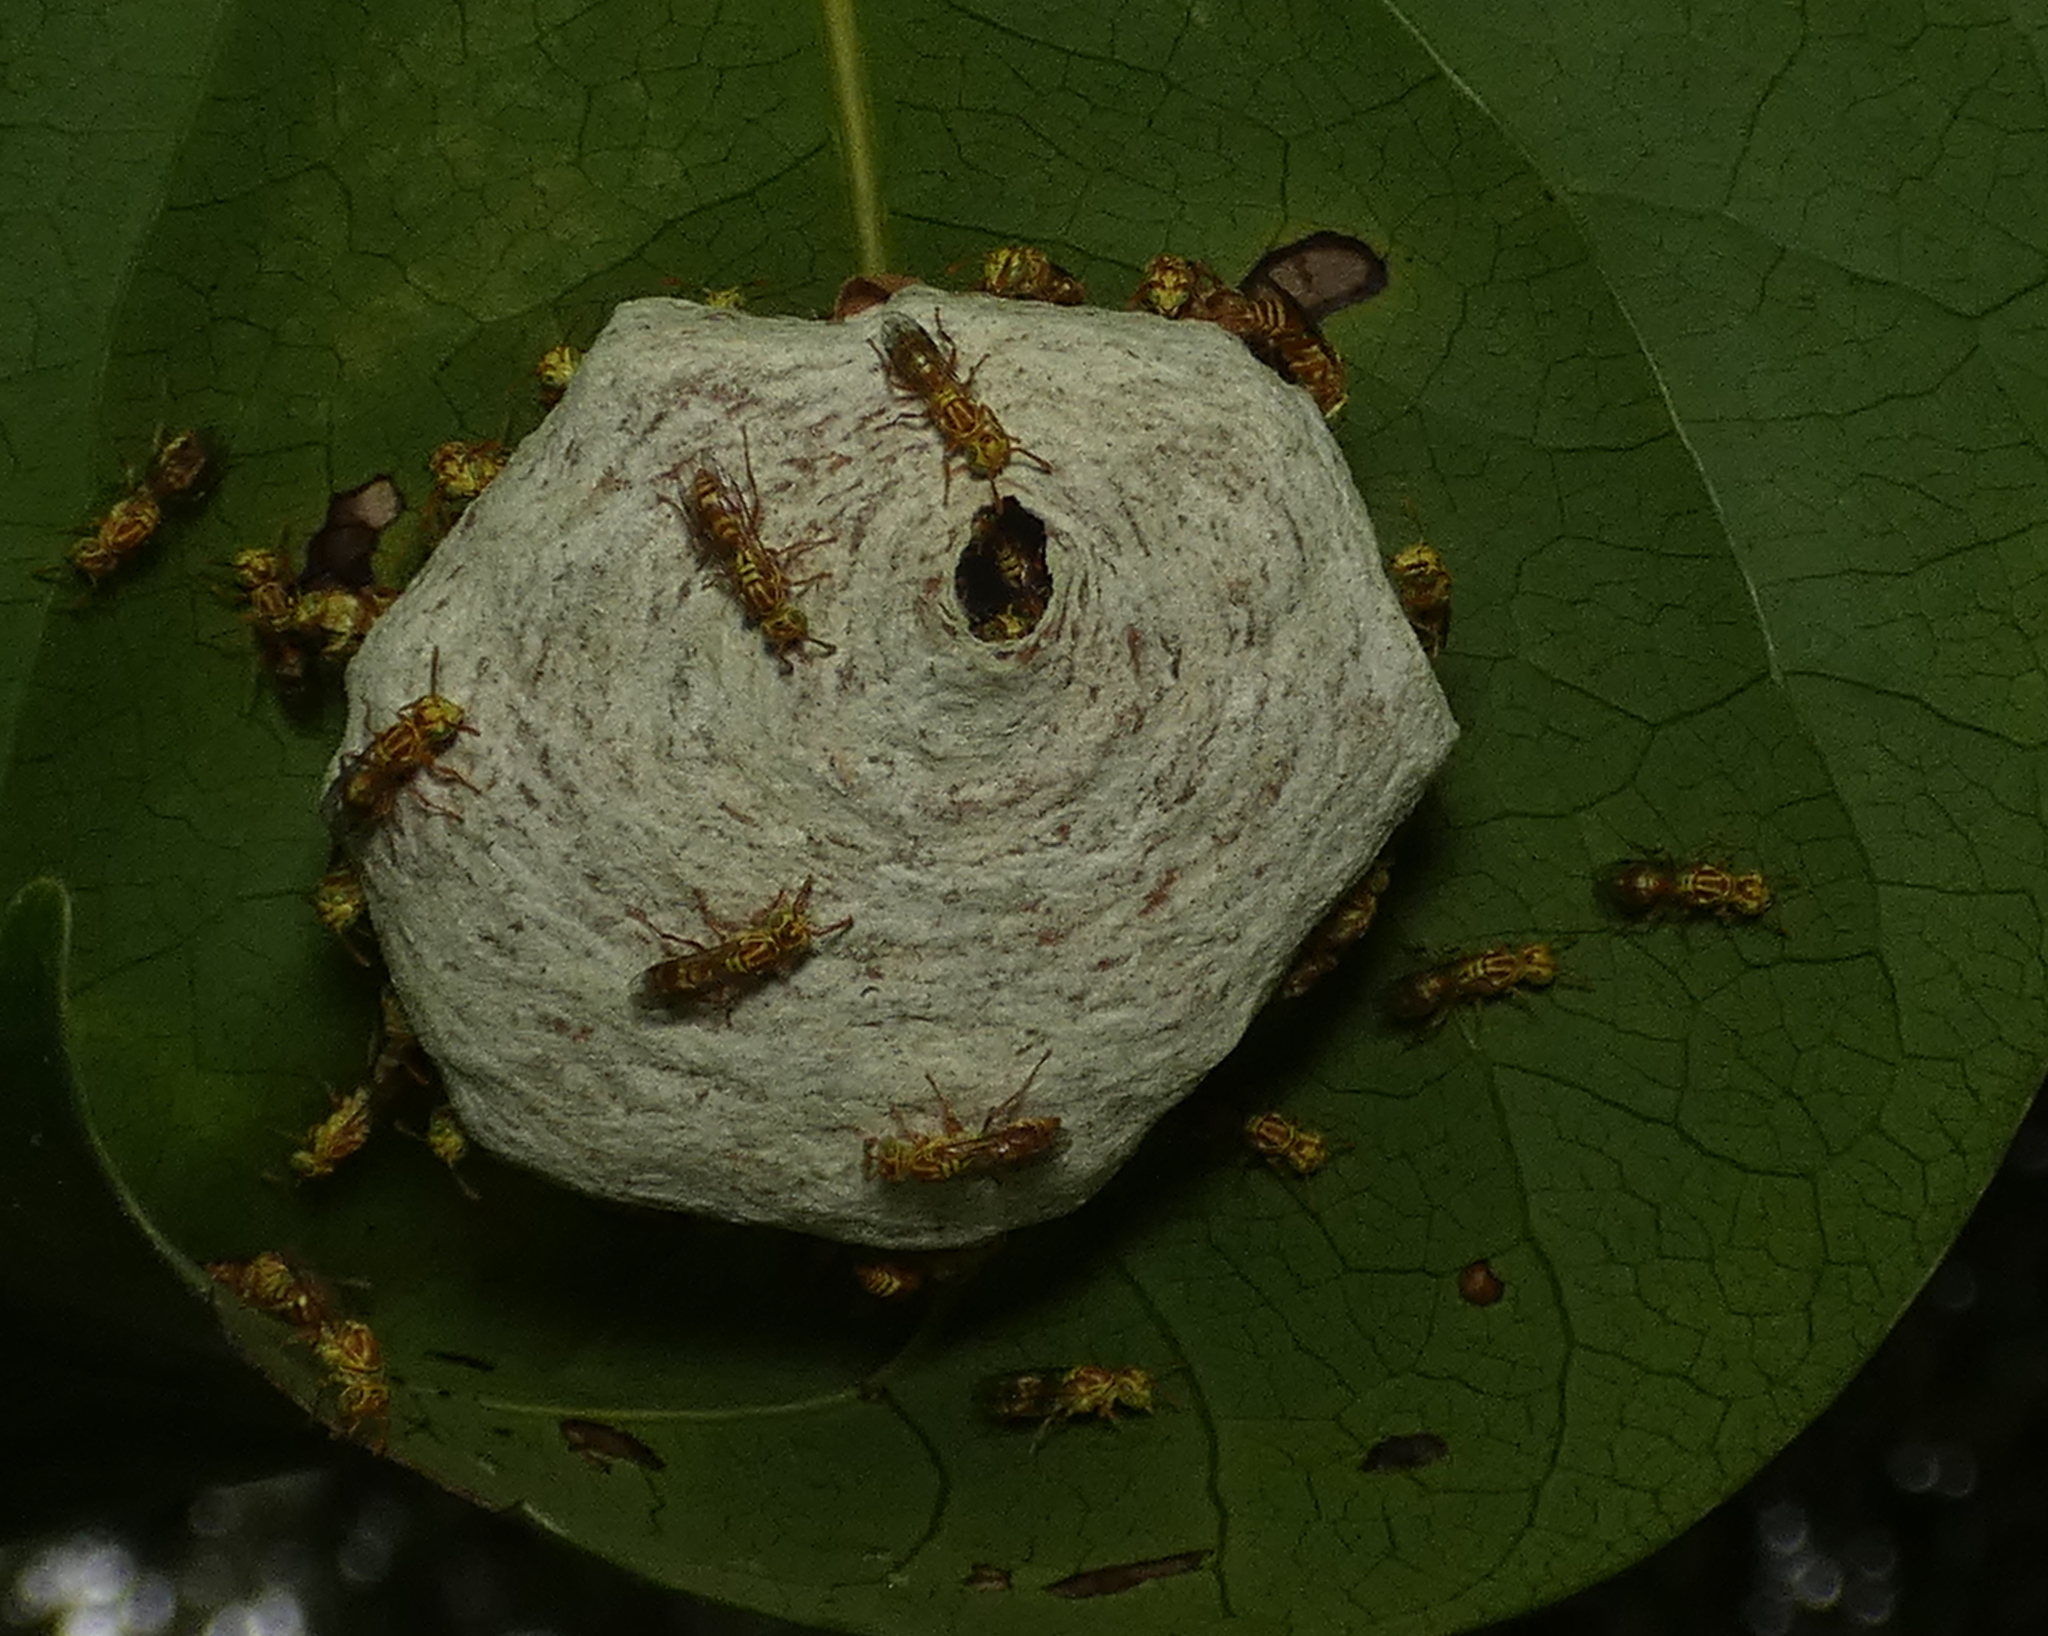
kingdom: Animalia
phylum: Arthropoda
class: Insecta
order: Hymenoptera
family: Vespidae
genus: Protopolybia
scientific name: Protopolybia potiguara
